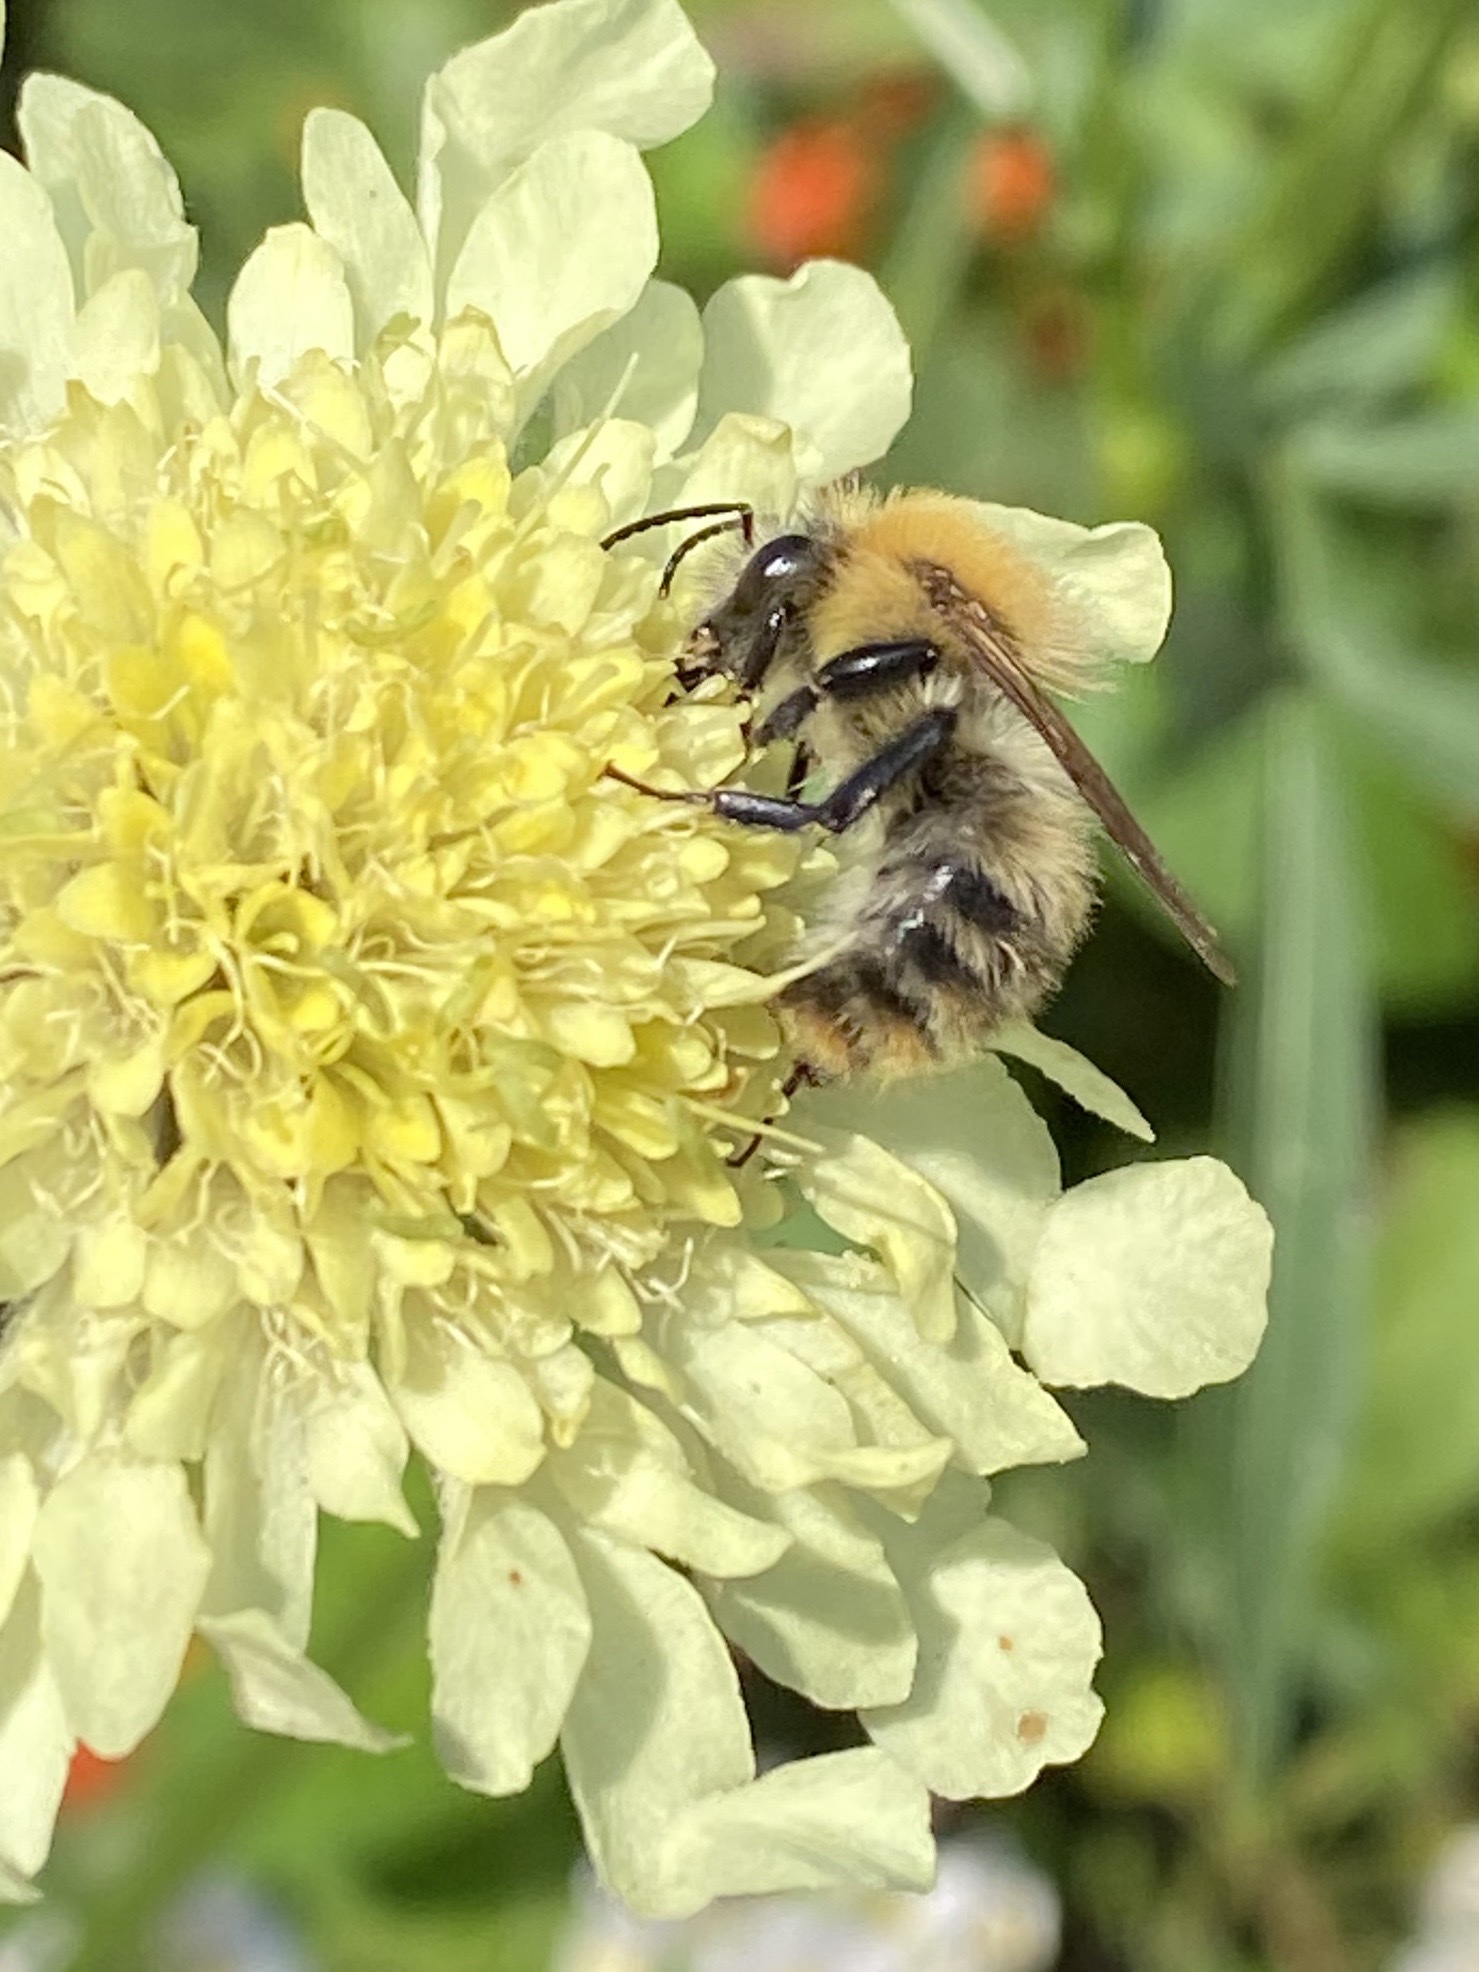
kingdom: Animalia
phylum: Arthropoda
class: Insecta
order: Hymenoptera
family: Apidae
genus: Bombus
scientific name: Bombus pascuorum
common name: Common carder bee
